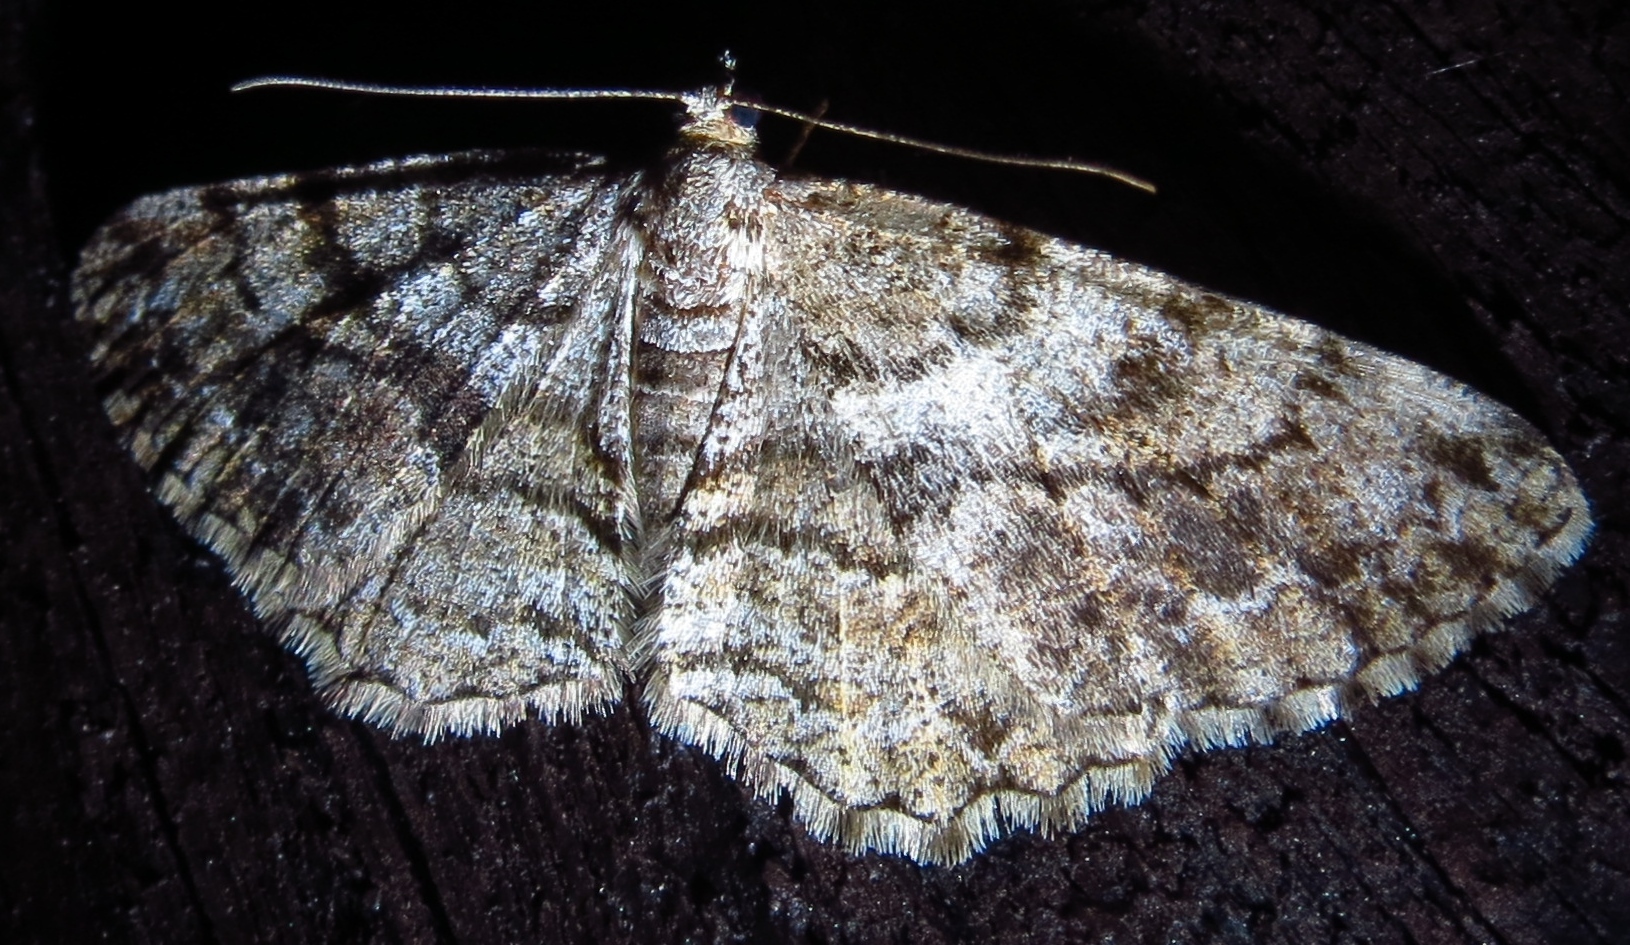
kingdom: Animalia
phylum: Arthropoda
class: Insecta
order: Lepidoptera
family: Geometridae
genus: Peribatodes
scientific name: Peribatodes secundaria
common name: Feathered beauty
